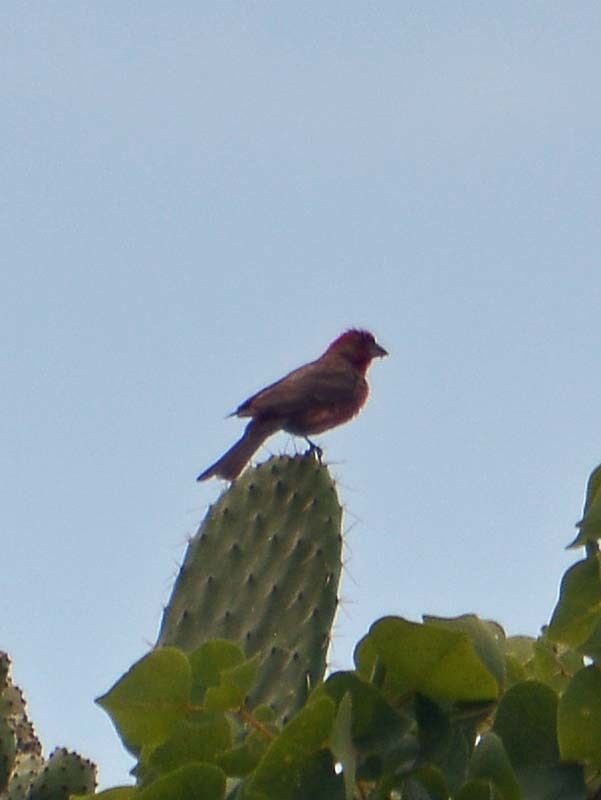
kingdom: Animalia
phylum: Chordata
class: Aves
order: Passeriformes
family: Fringillidae
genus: Haemorhous
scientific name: Haemorhous mexicanus
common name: House finch
